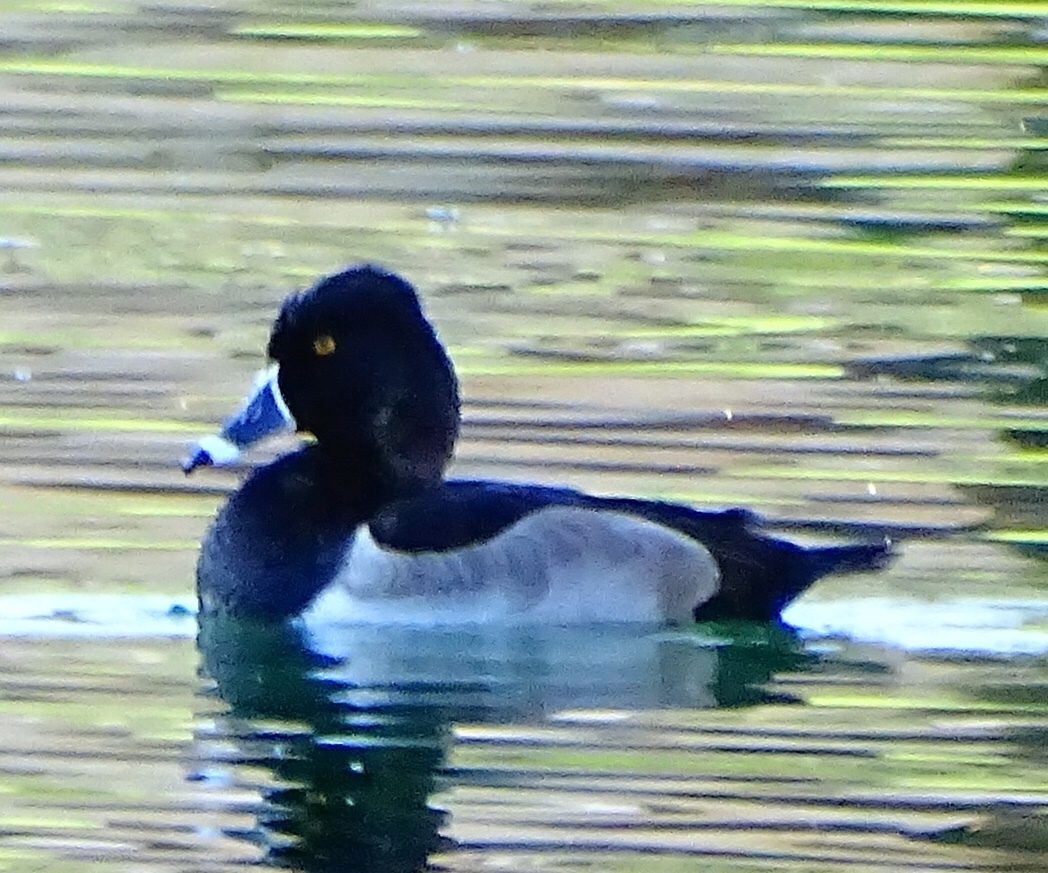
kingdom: Animalia
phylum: Chordata
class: Aves
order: Anseriformes
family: Anatidae
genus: Aythya
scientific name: Aythya collaris
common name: Ring-necked duck
